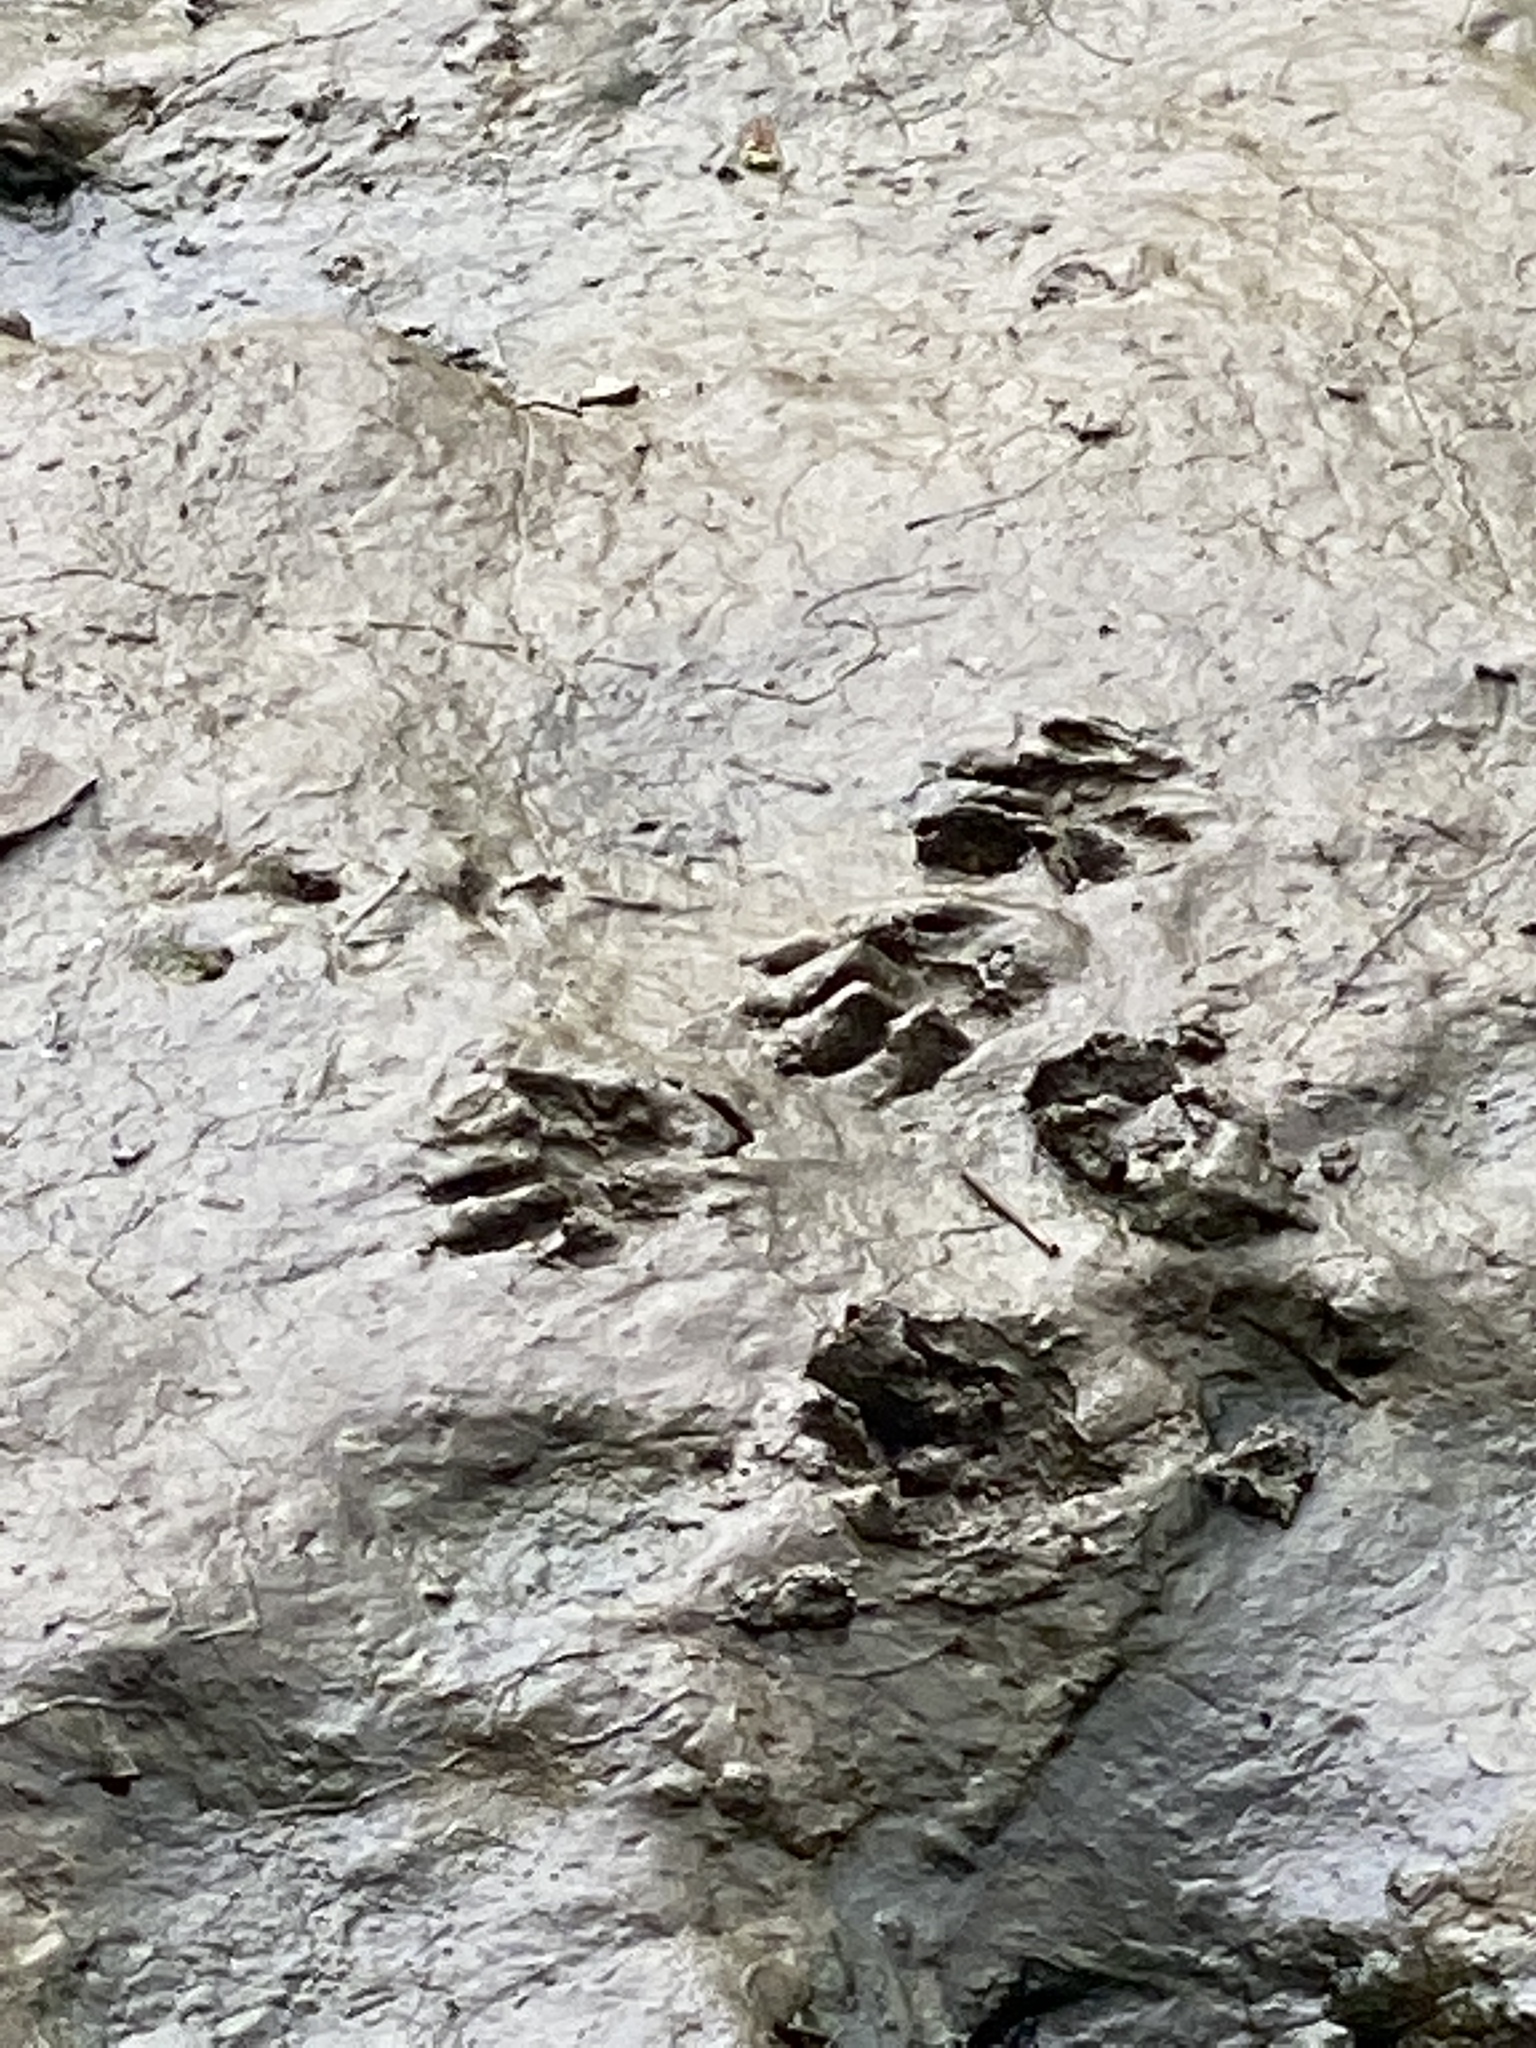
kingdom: Animalia
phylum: Chordata
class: Mammalia
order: Carnivora
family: Procyonidae
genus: Procyon
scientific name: Procyon lotor
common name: Raccoon
